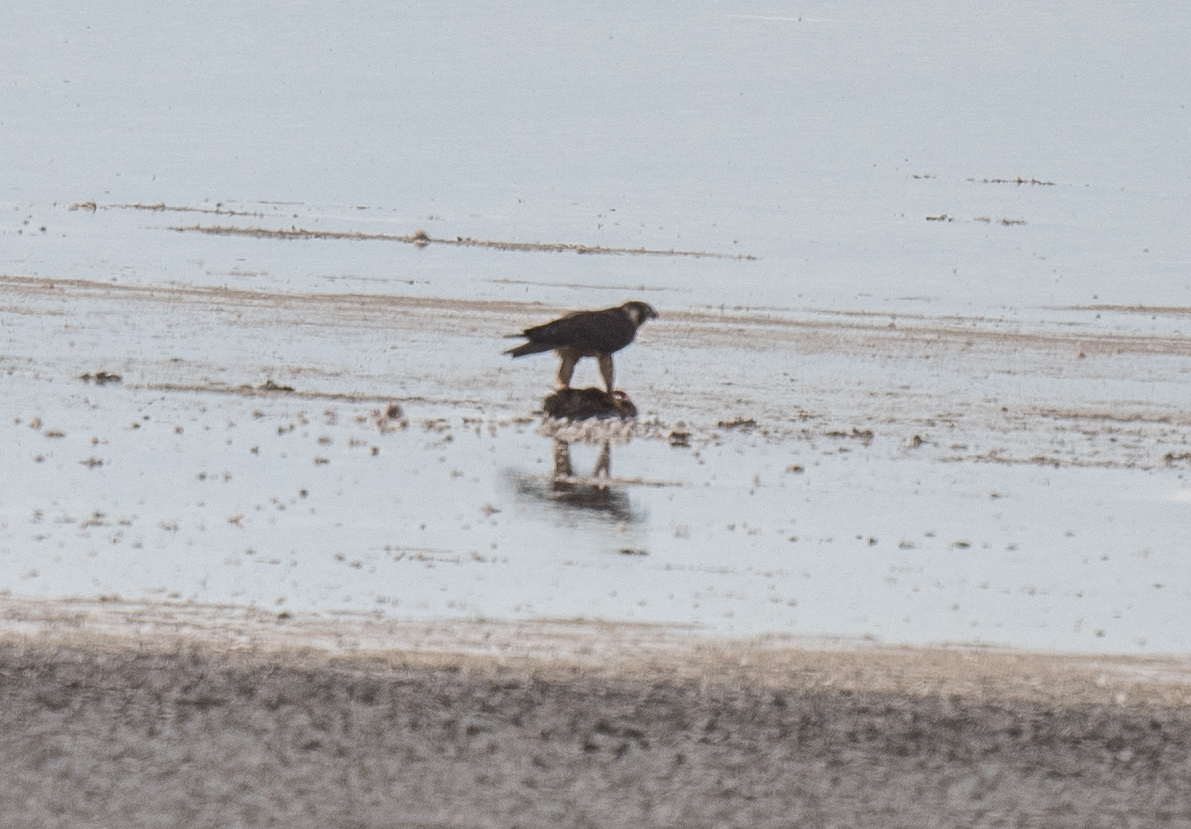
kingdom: Animalia
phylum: Chordata
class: Aves
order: Falconiformes
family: Falconidae
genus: Falco
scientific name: Falco peregrinus
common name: Peregrine falcon
